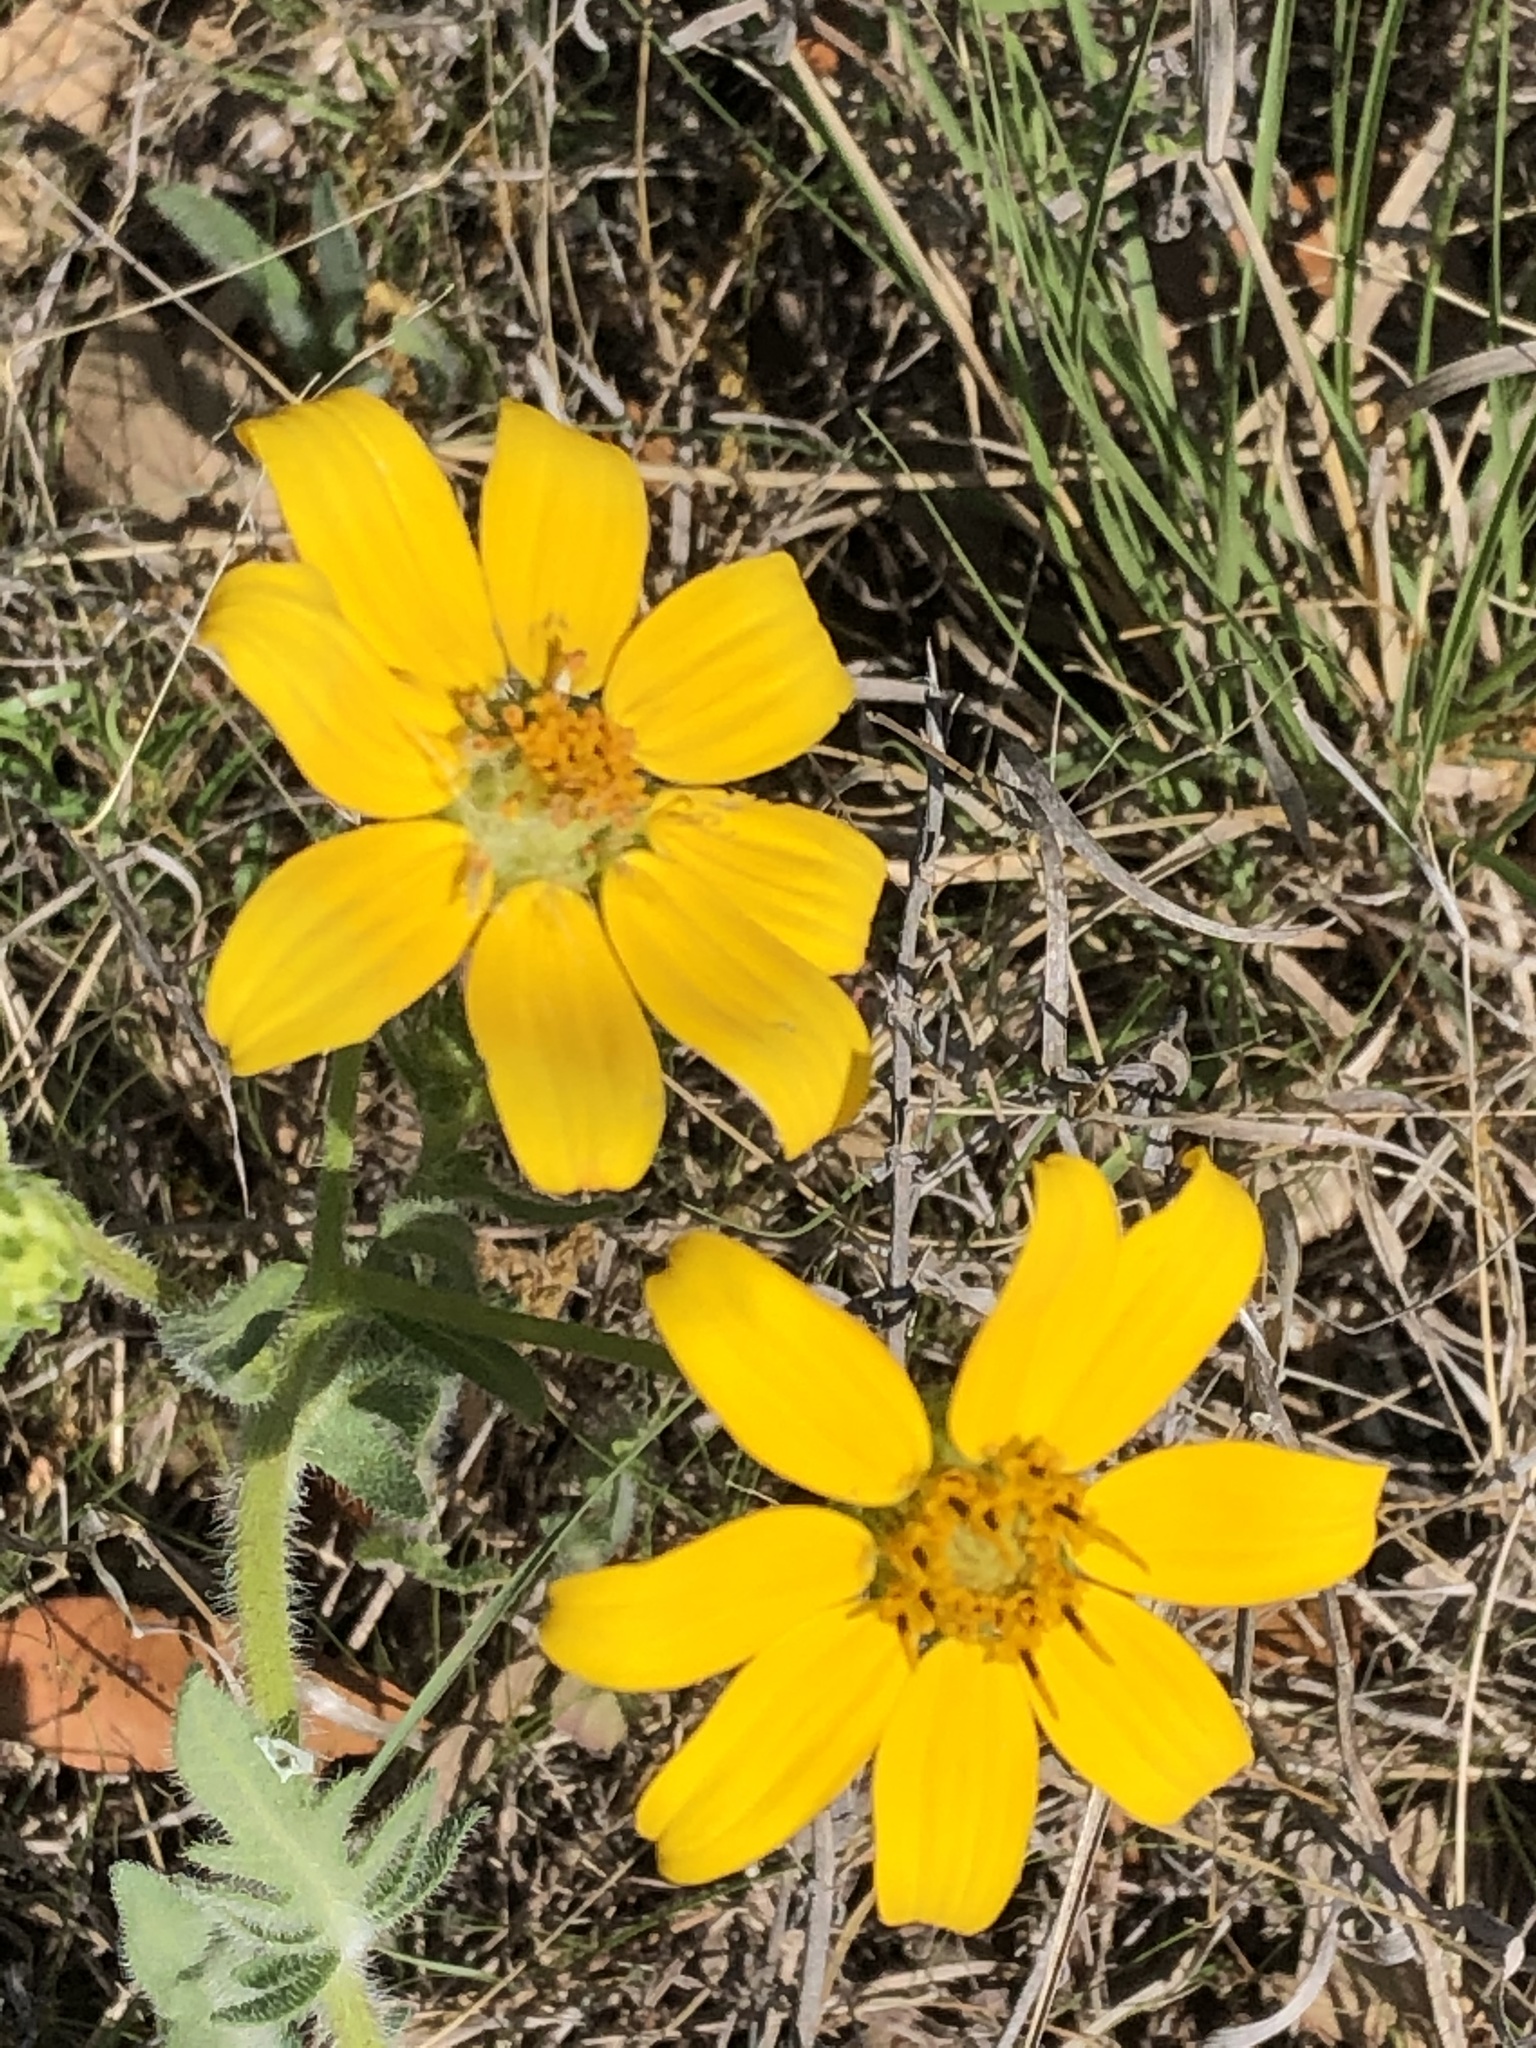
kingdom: Plantae
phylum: Tracheophyta
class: Magnoliopsida
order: Asterales
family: Asteraceae
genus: Engelmannia
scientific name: Engelmannia peristenia
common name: Engelmann's daisy
